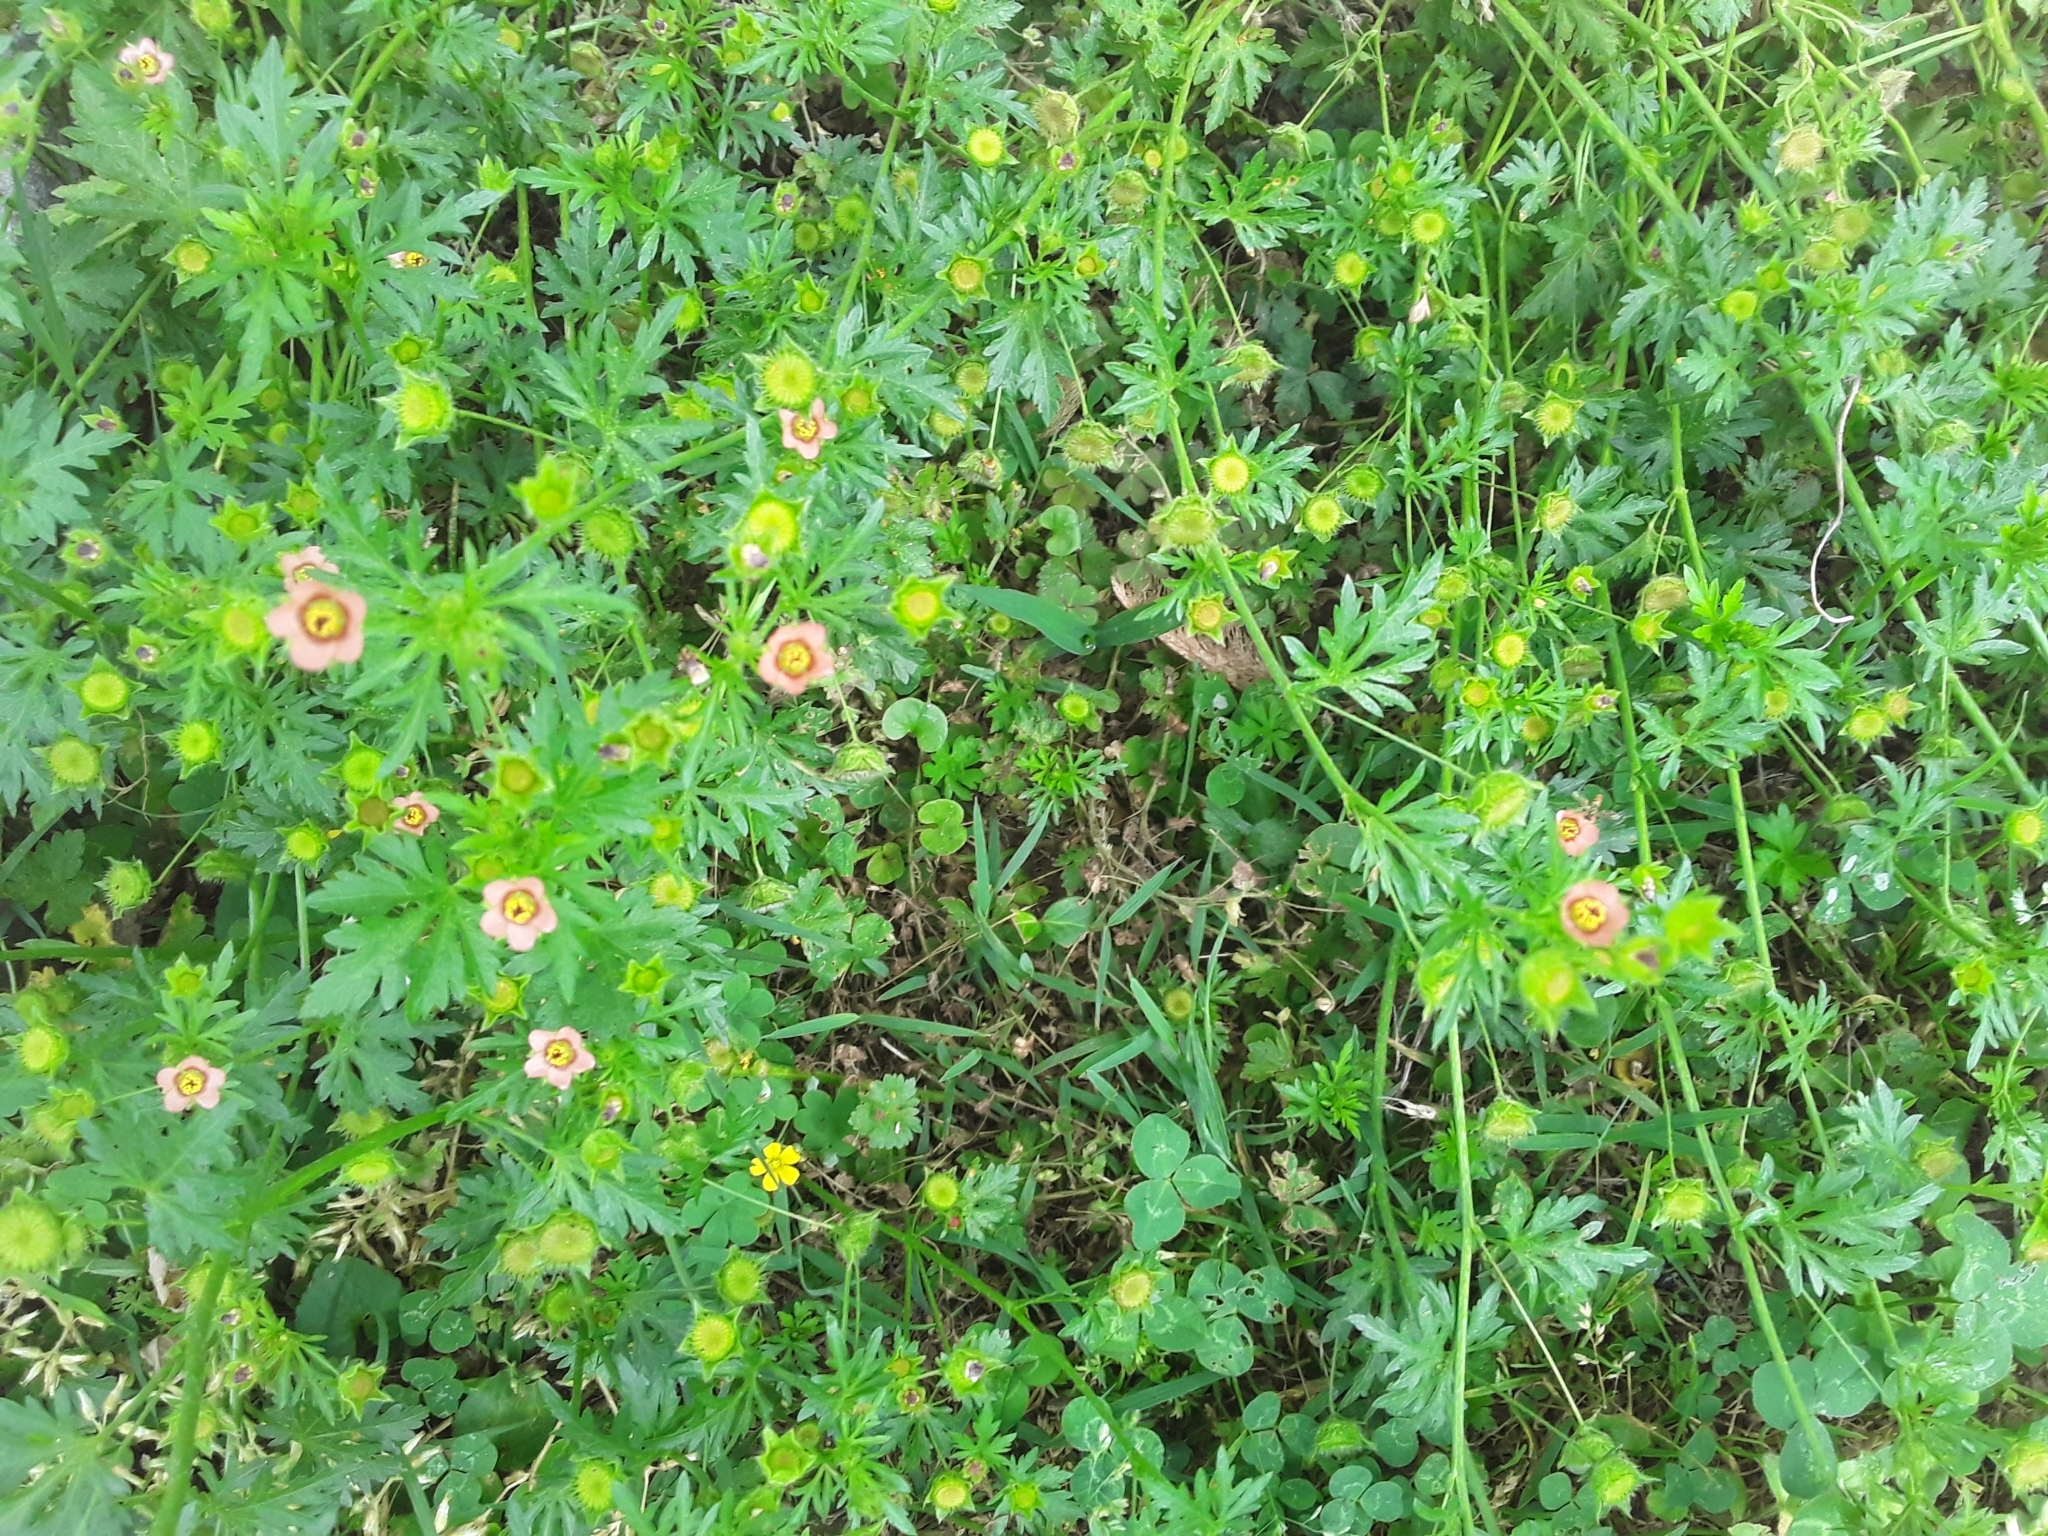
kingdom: Plantae
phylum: Tracheophyta
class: Magnoliopsida
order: Malvales
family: Malvaceae
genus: Modiola
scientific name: Modiola caroliniana
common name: Carolina bristlemallow
